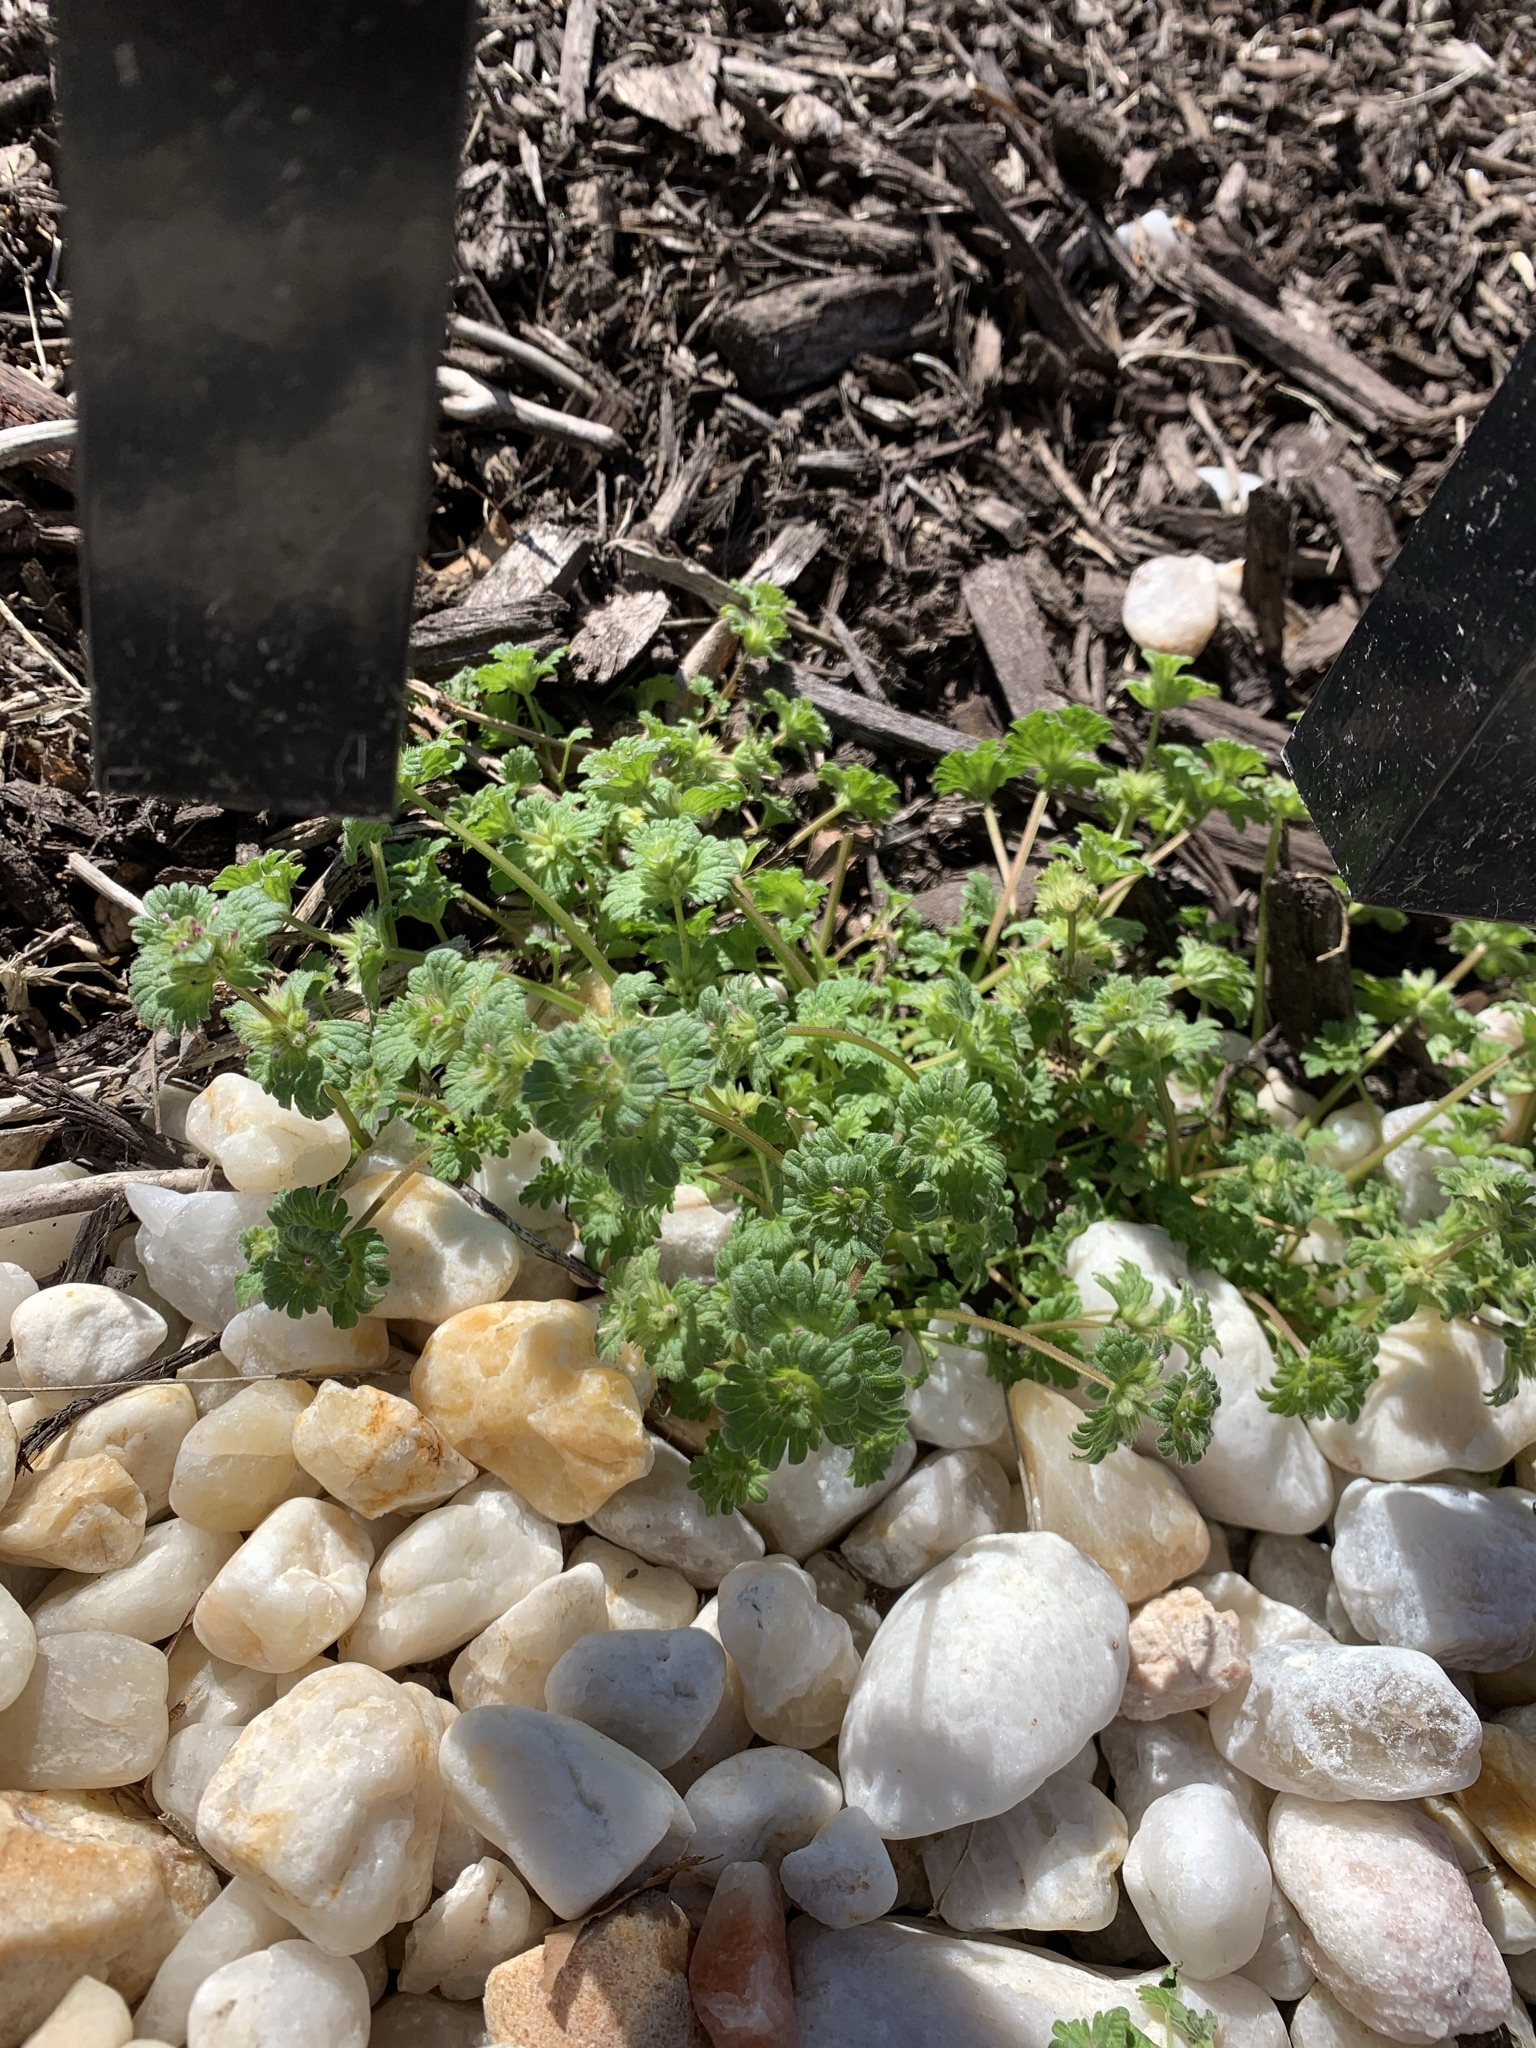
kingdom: Plantae
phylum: Tracheophyta
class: Magnoliopsida
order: Lamiales
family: Lamiaceae
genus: Lamium
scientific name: Lamium amplexicaule
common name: Henbit dead-nettle
